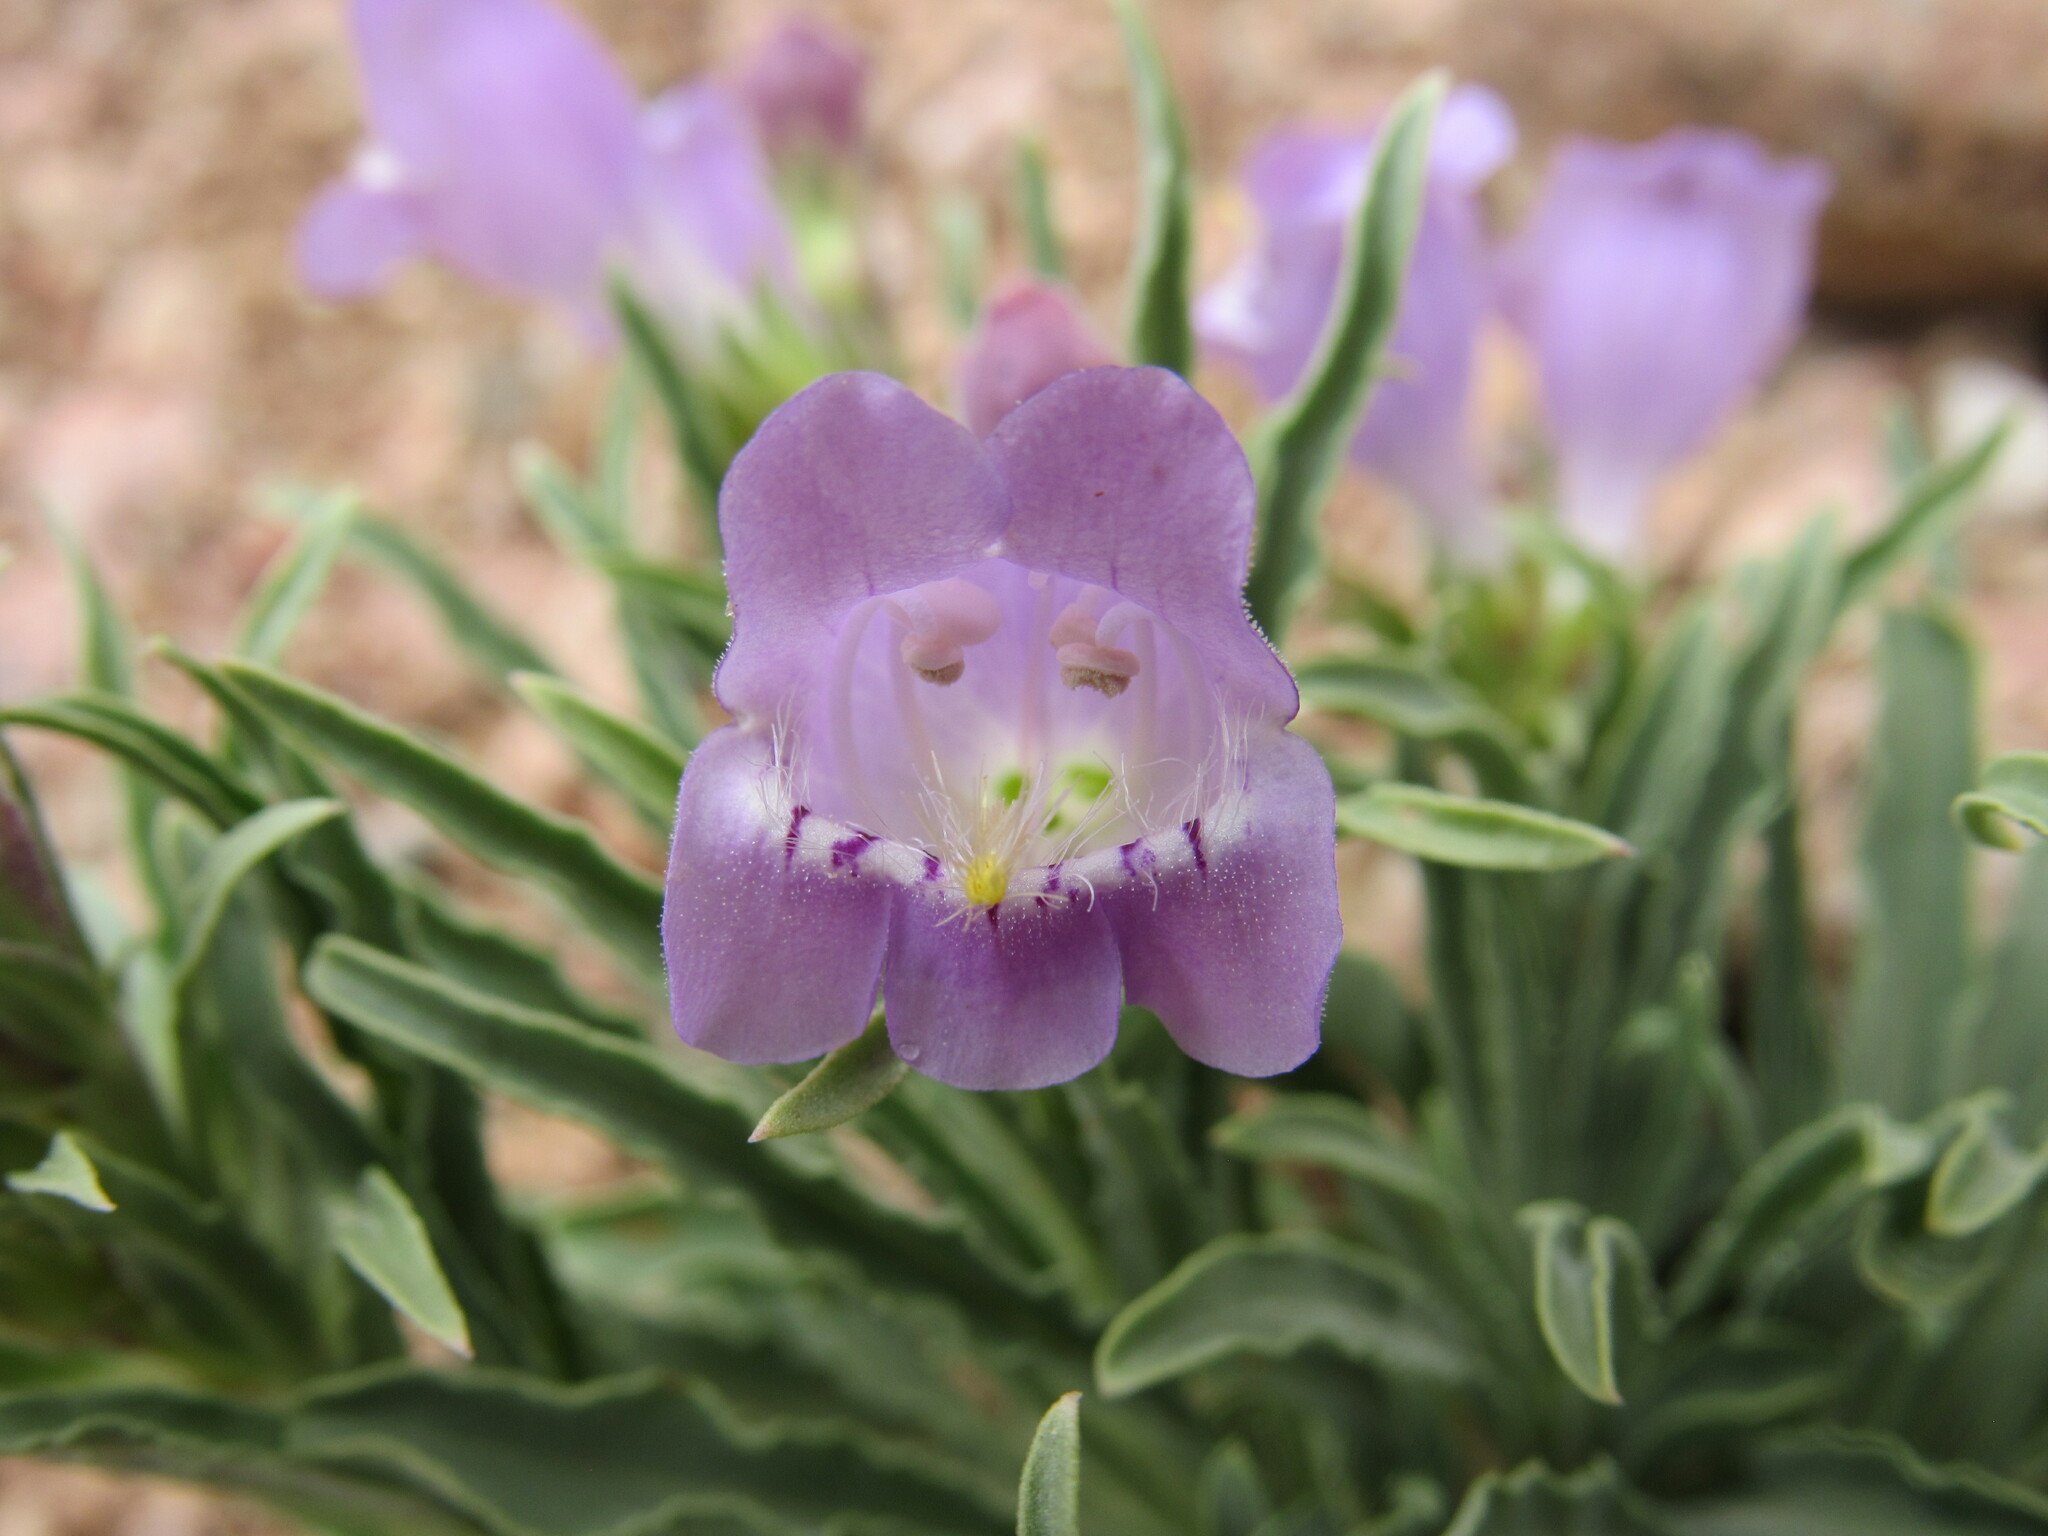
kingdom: Plantae
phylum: Tracheophyta
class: Magnoliopsida
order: Lamiales
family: Plantaginaceae
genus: Penstemon
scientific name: Penstemon jamesii
